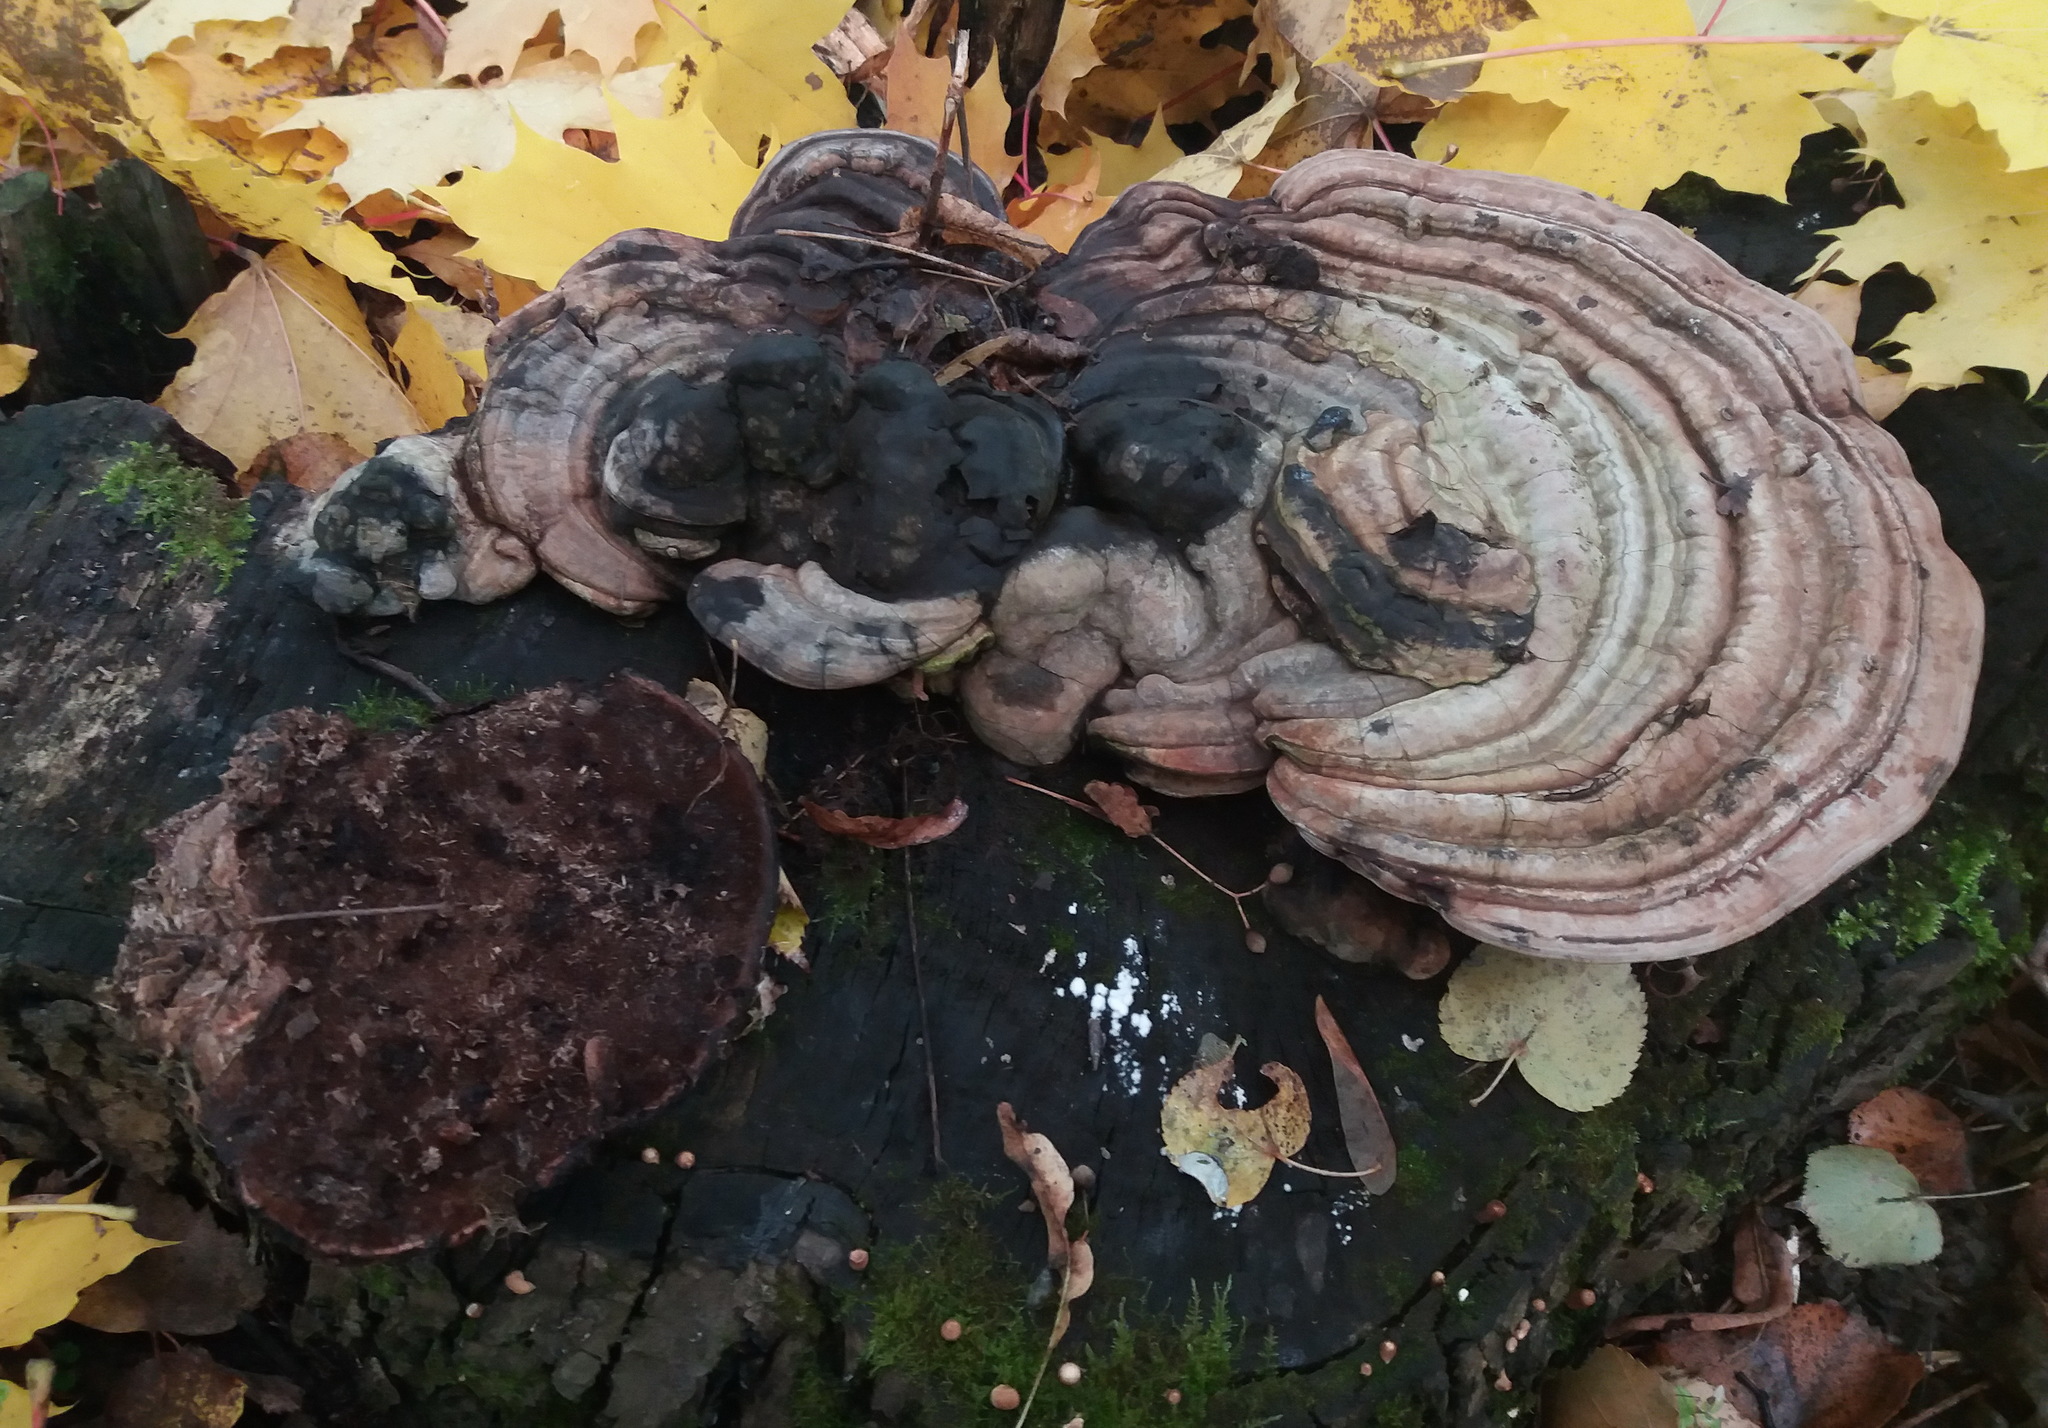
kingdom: Fungi
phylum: Basidiomycota
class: Agaricomycetes
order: Polyporales
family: Polyporaceae
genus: Ganoderma
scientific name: Ganoderma applanatum
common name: Artist's bracket
